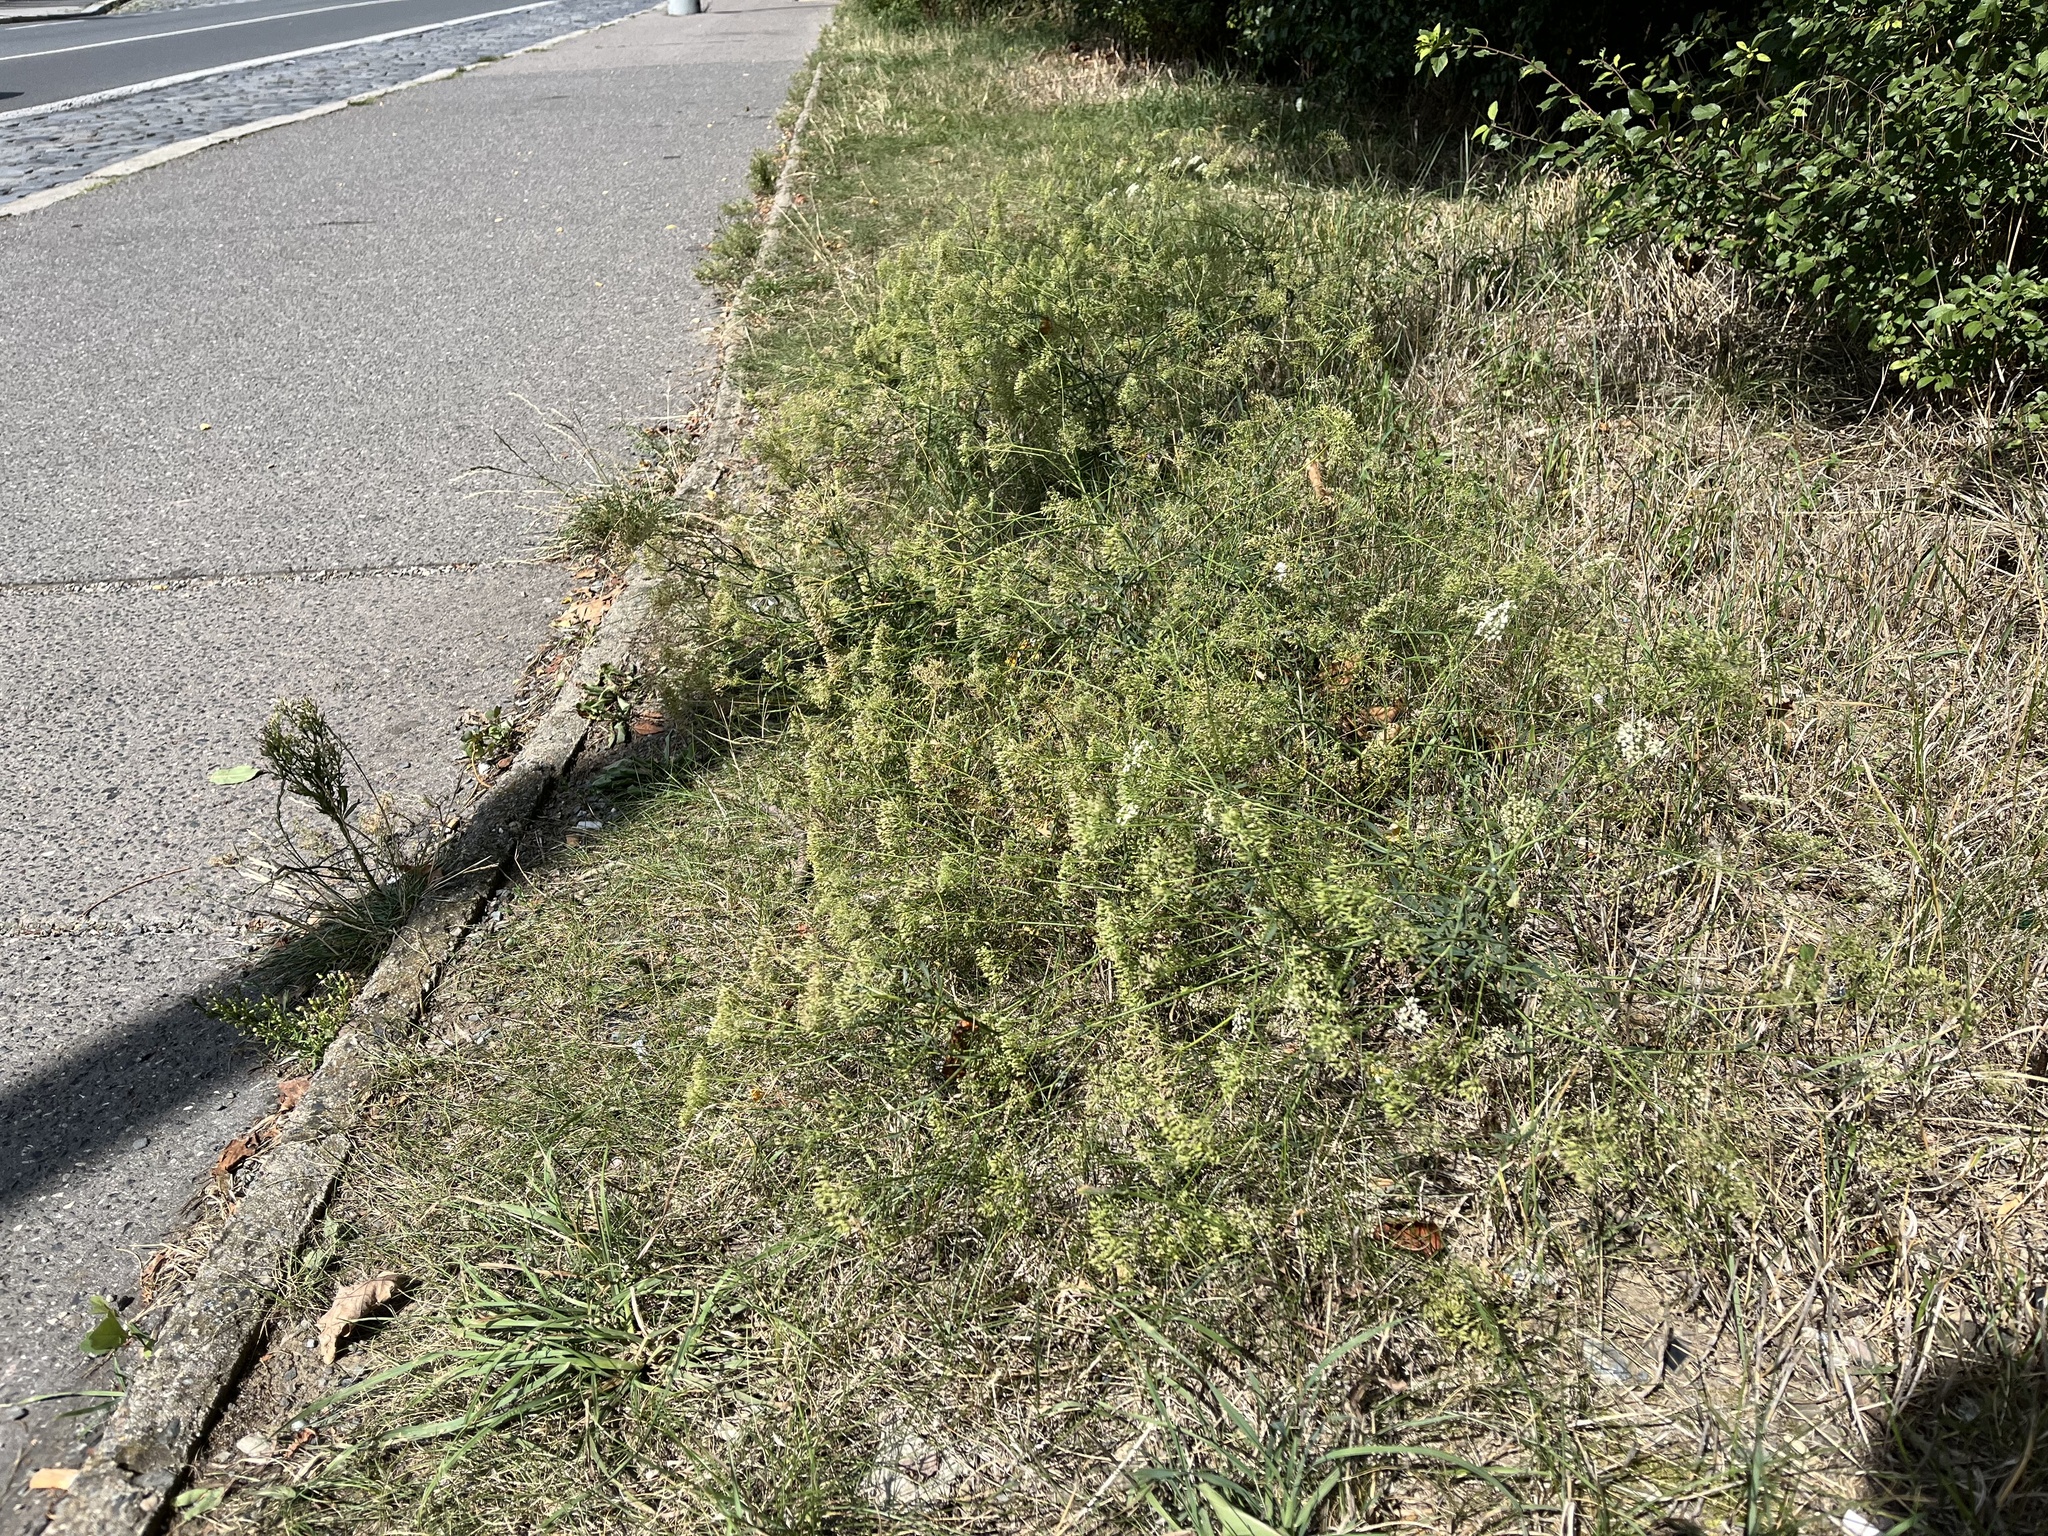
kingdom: Plantae
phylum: Tracheophyta
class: Magnoliopsida
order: Apiales
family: Apiaceae
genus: Falcaria
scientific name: Falcaria vulgaris
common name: Longleaf
